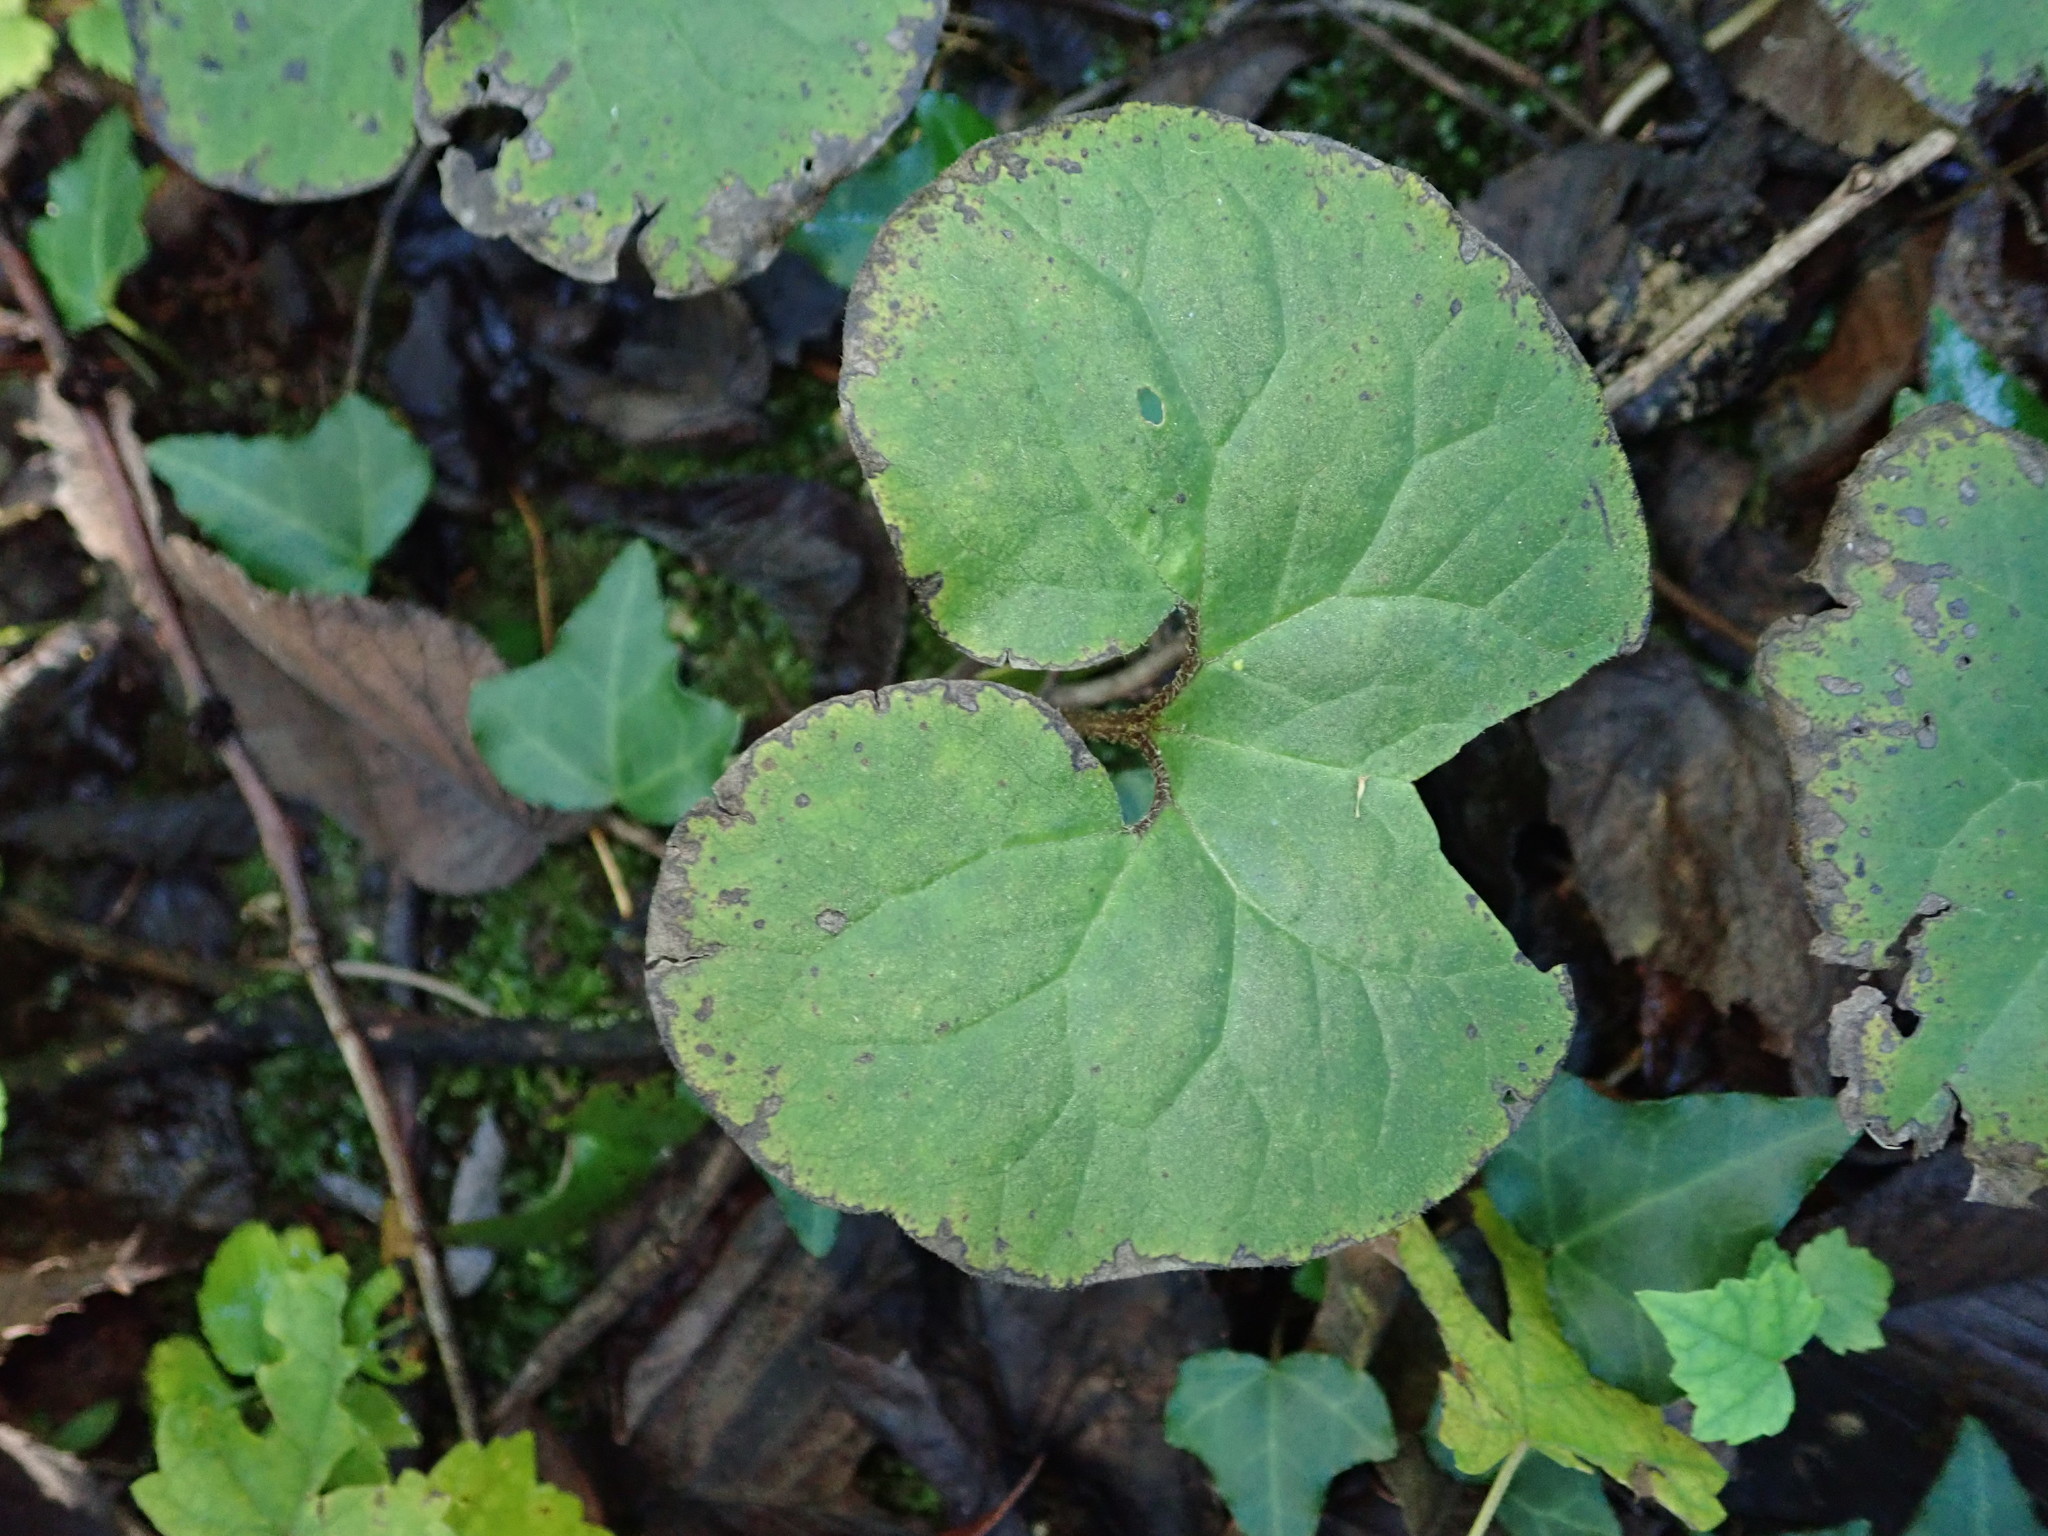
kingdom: Plantae
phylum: Tracheophyta
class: Magnoliopsida
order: Piperales
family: Aristolochiaceae
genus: Asarum
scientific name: Asarum canadense
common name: Wild ginger
